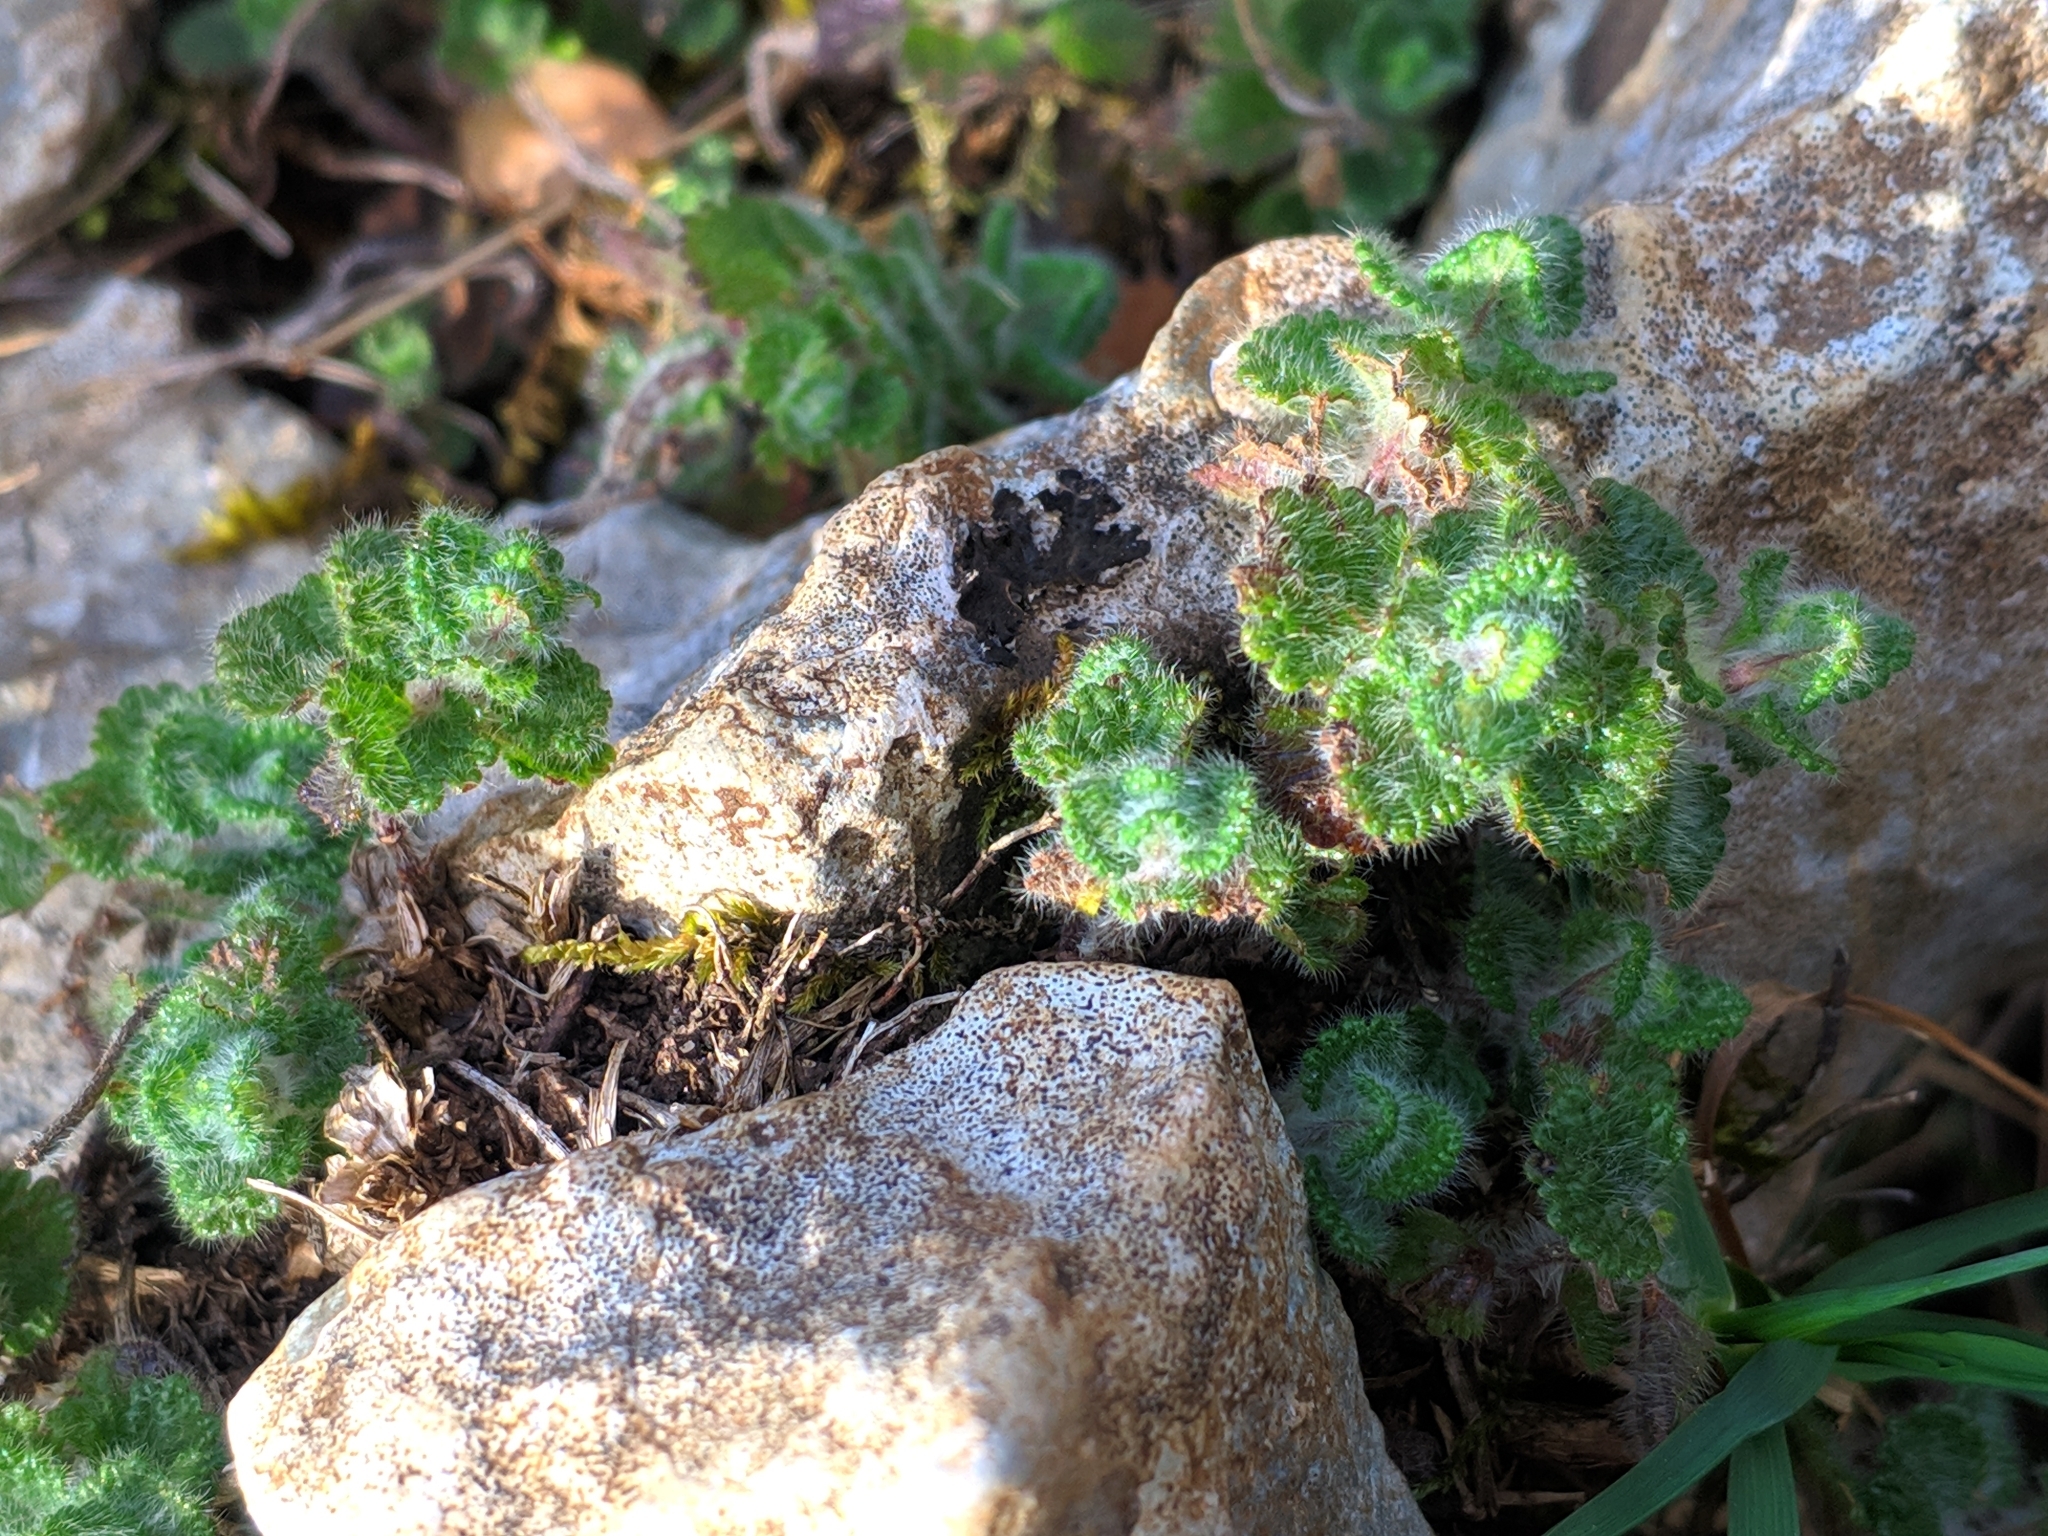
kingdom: Plantae
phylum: Tracheophyta
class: Magnoliopsida
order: Lamiales
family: Lamiaceae
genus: Teucrium
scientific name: Teucrium pyrenaicum
